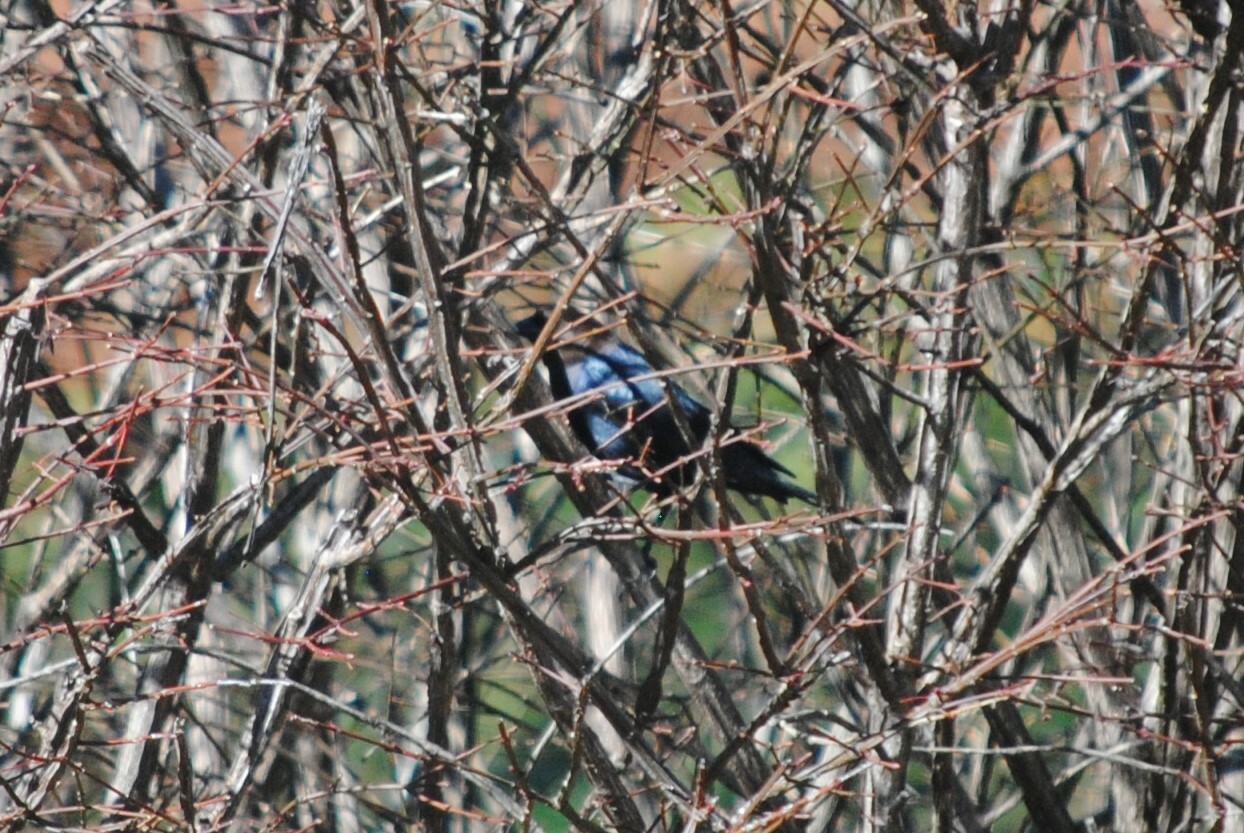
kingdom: Animalia
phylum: Chordata
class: Aves
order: Passeriformes
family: Icteridae
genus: Molothrus
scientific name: Molothrus ater
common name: Brown-headed cowbird
